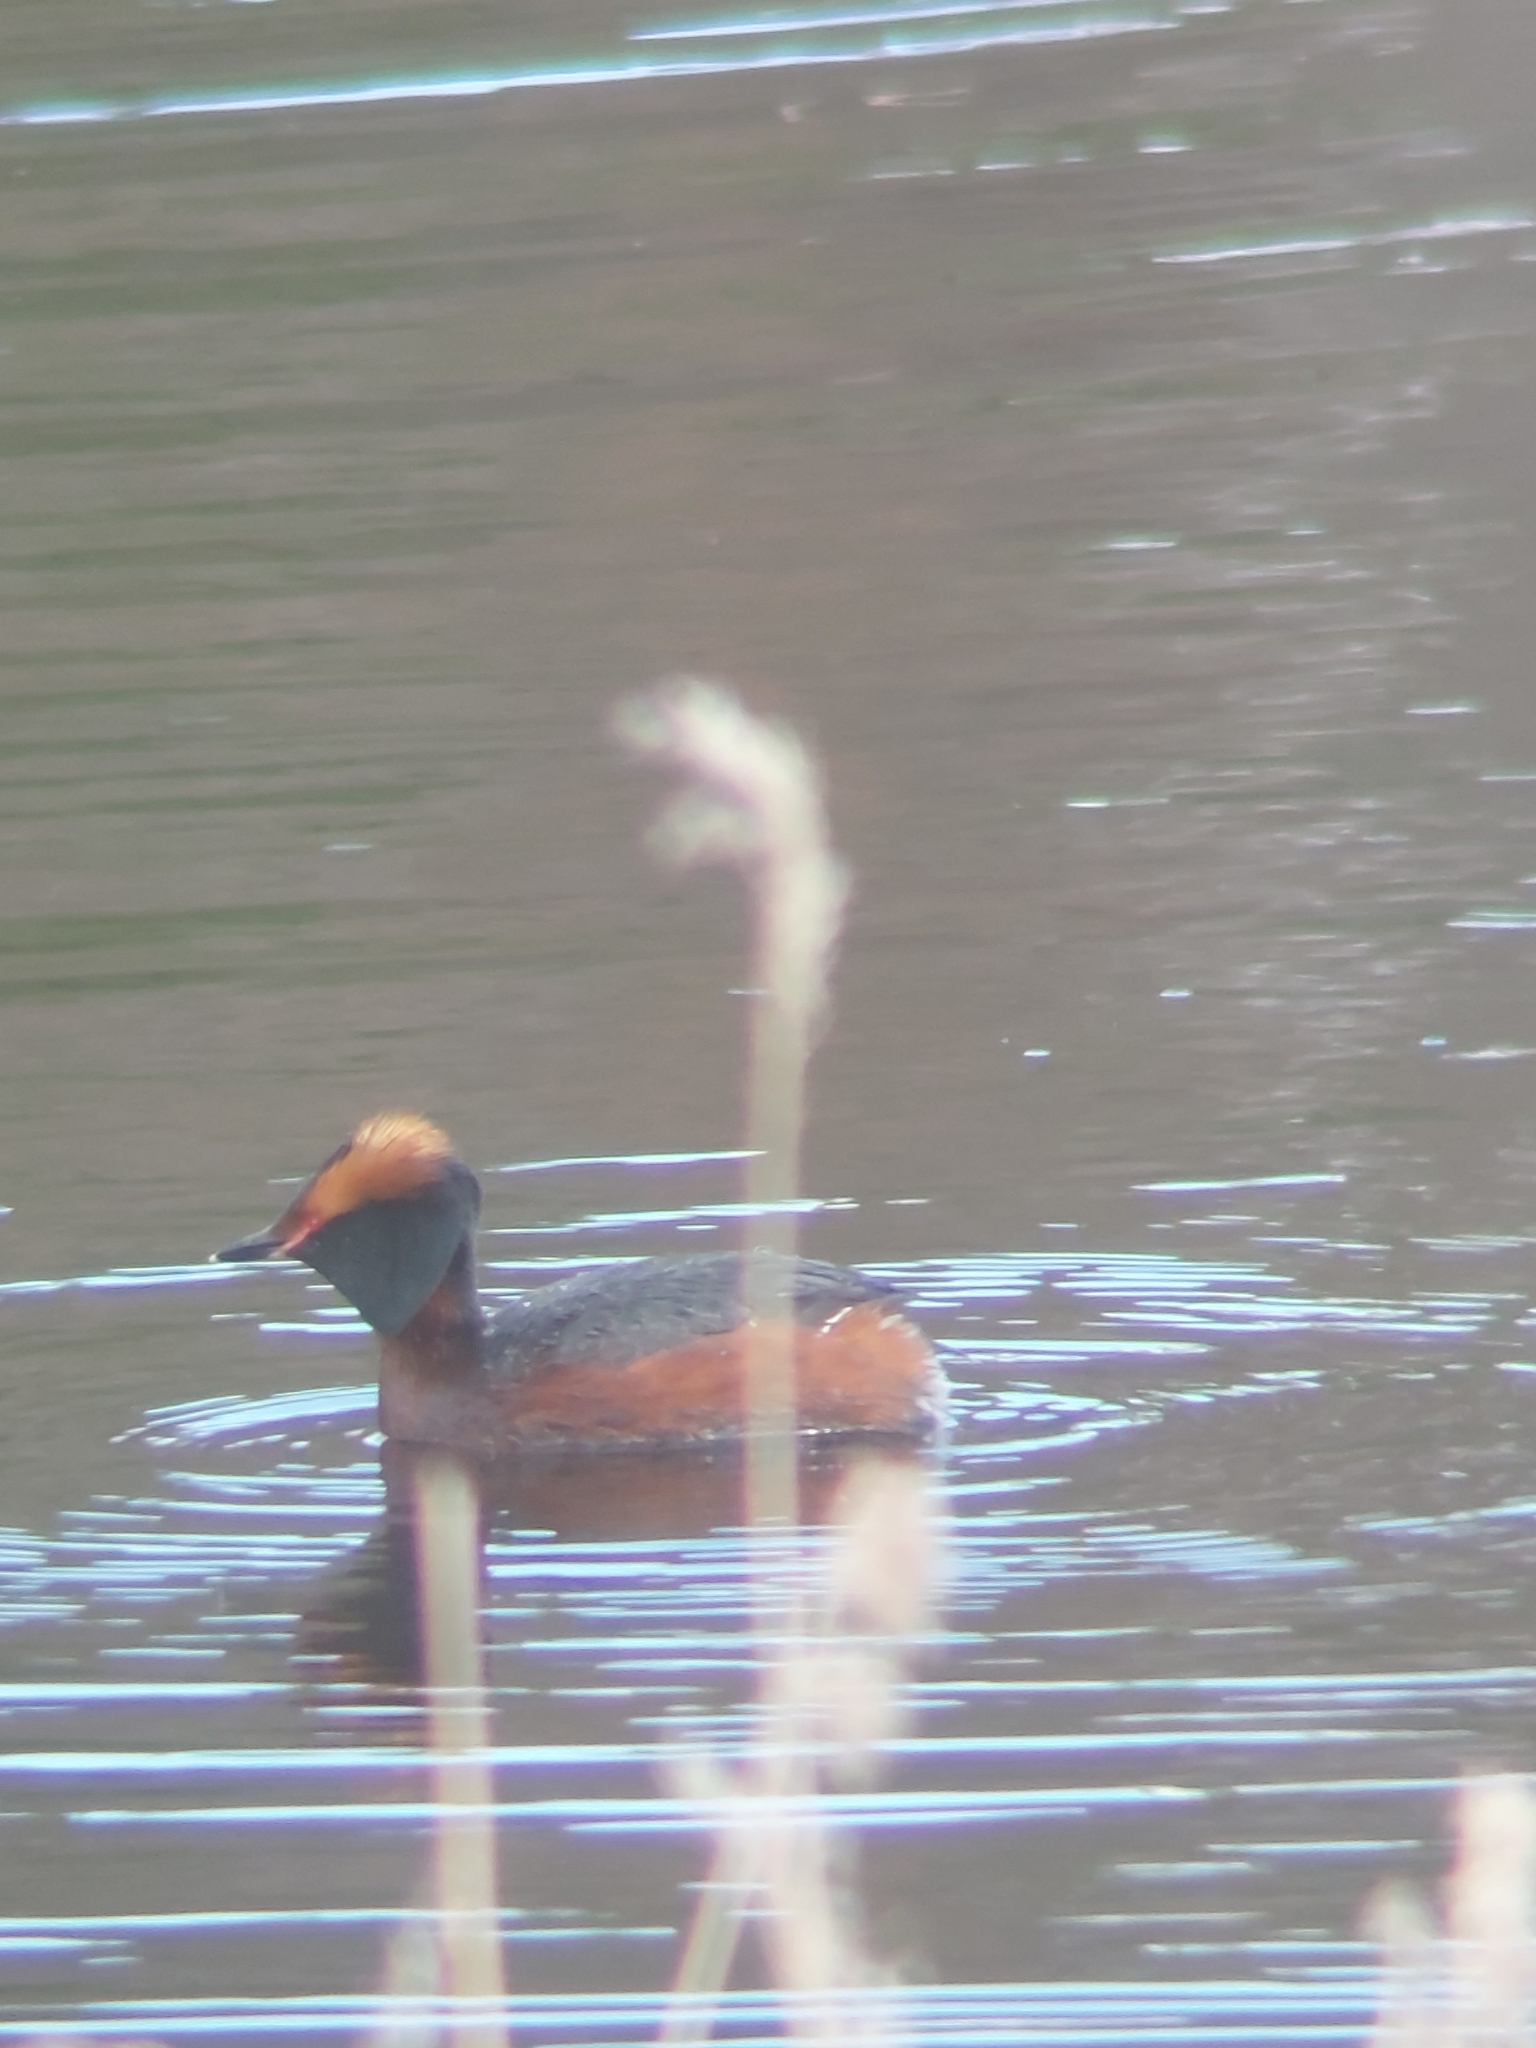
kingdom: Animalia
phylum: Chordata
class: Aves
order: Podicipediformes
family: Podicipedidae
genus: Podiceps
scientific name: Podiceps auritus
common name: Horned grebe
